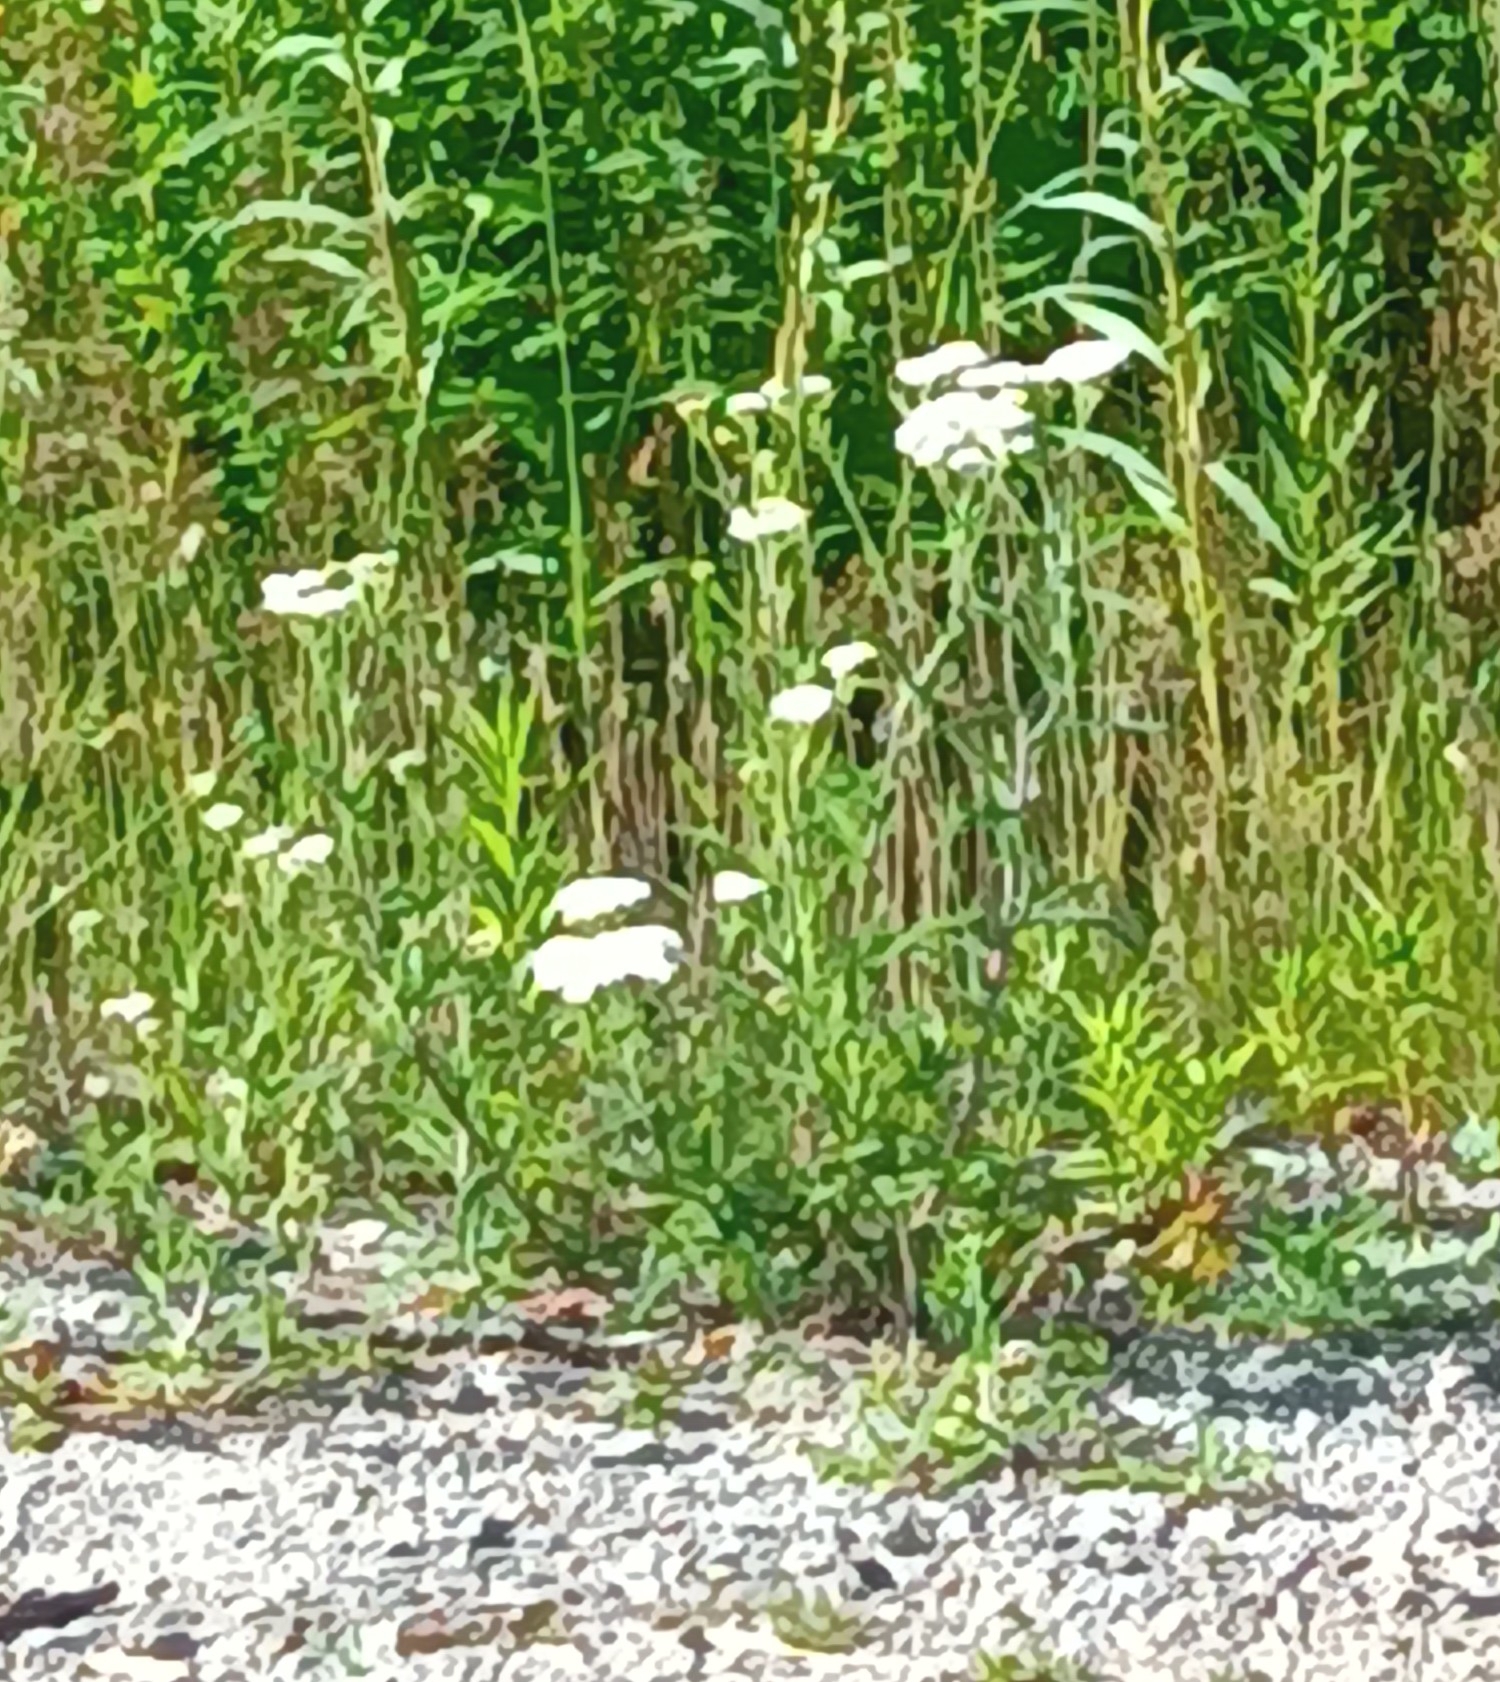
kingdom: Plantae
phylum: Tracheophyta
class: Magnoliopsida
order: Asterales
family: Asteraceae
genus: Achillea
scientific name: Achillea millefolium
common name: Yarrow
